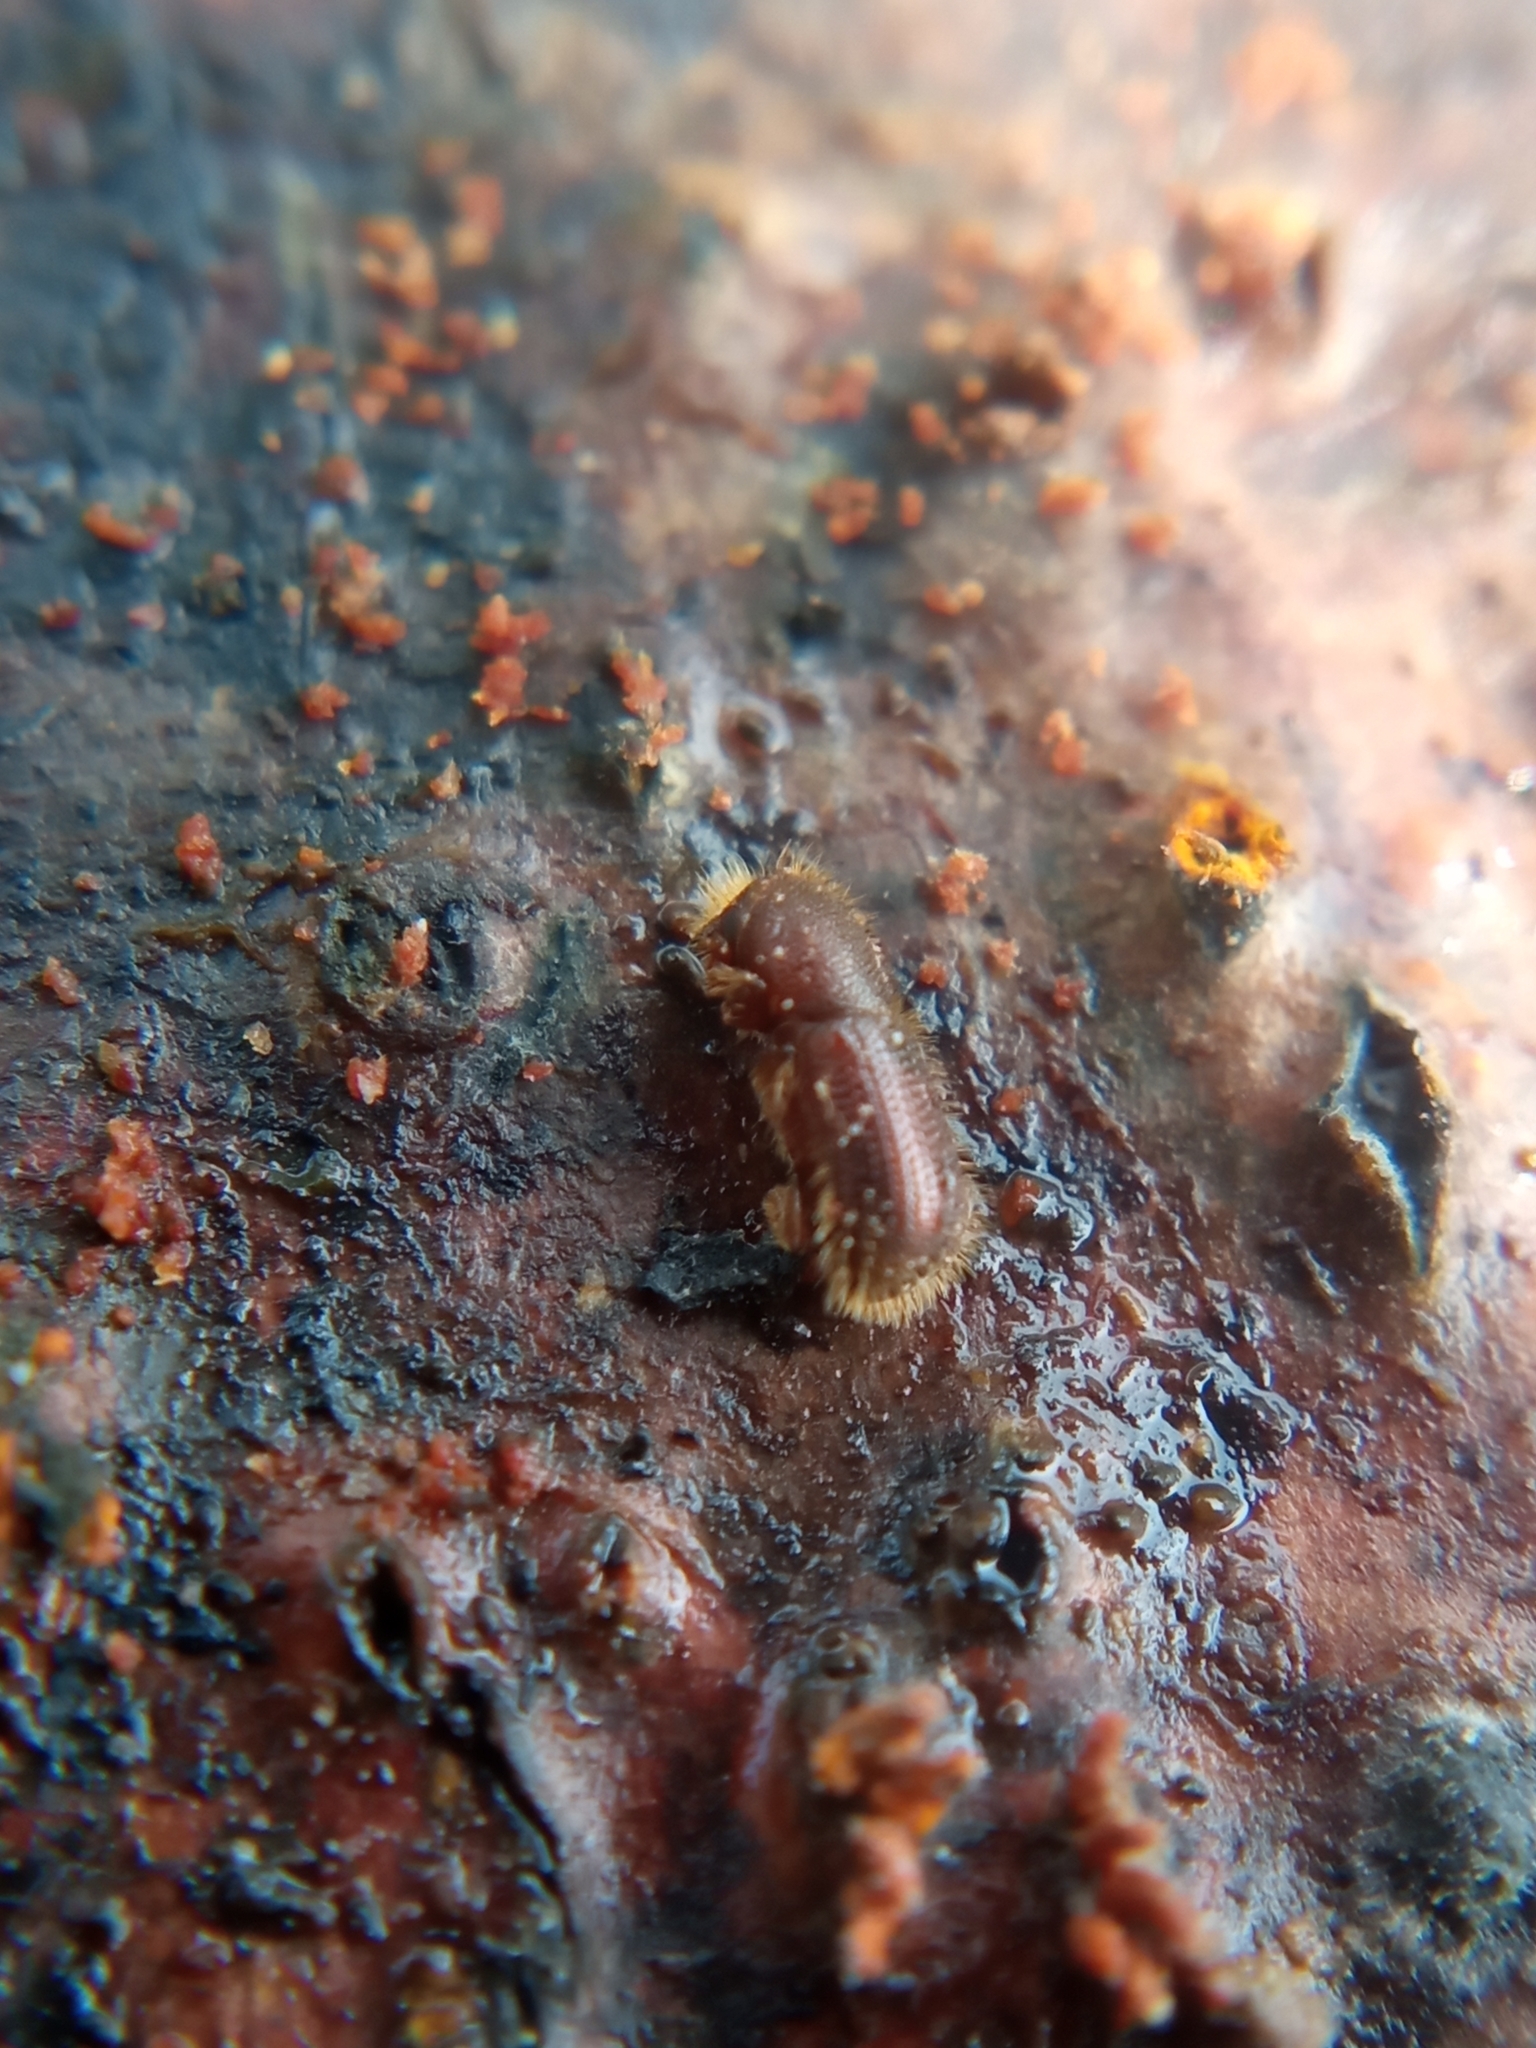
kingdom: Animalia
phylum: Arthropoda
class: Insecta
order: Coleoptera
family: Curculionidae
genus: Ips
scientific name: Ips typographus
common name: Eight-toothed spruce bark beetle
